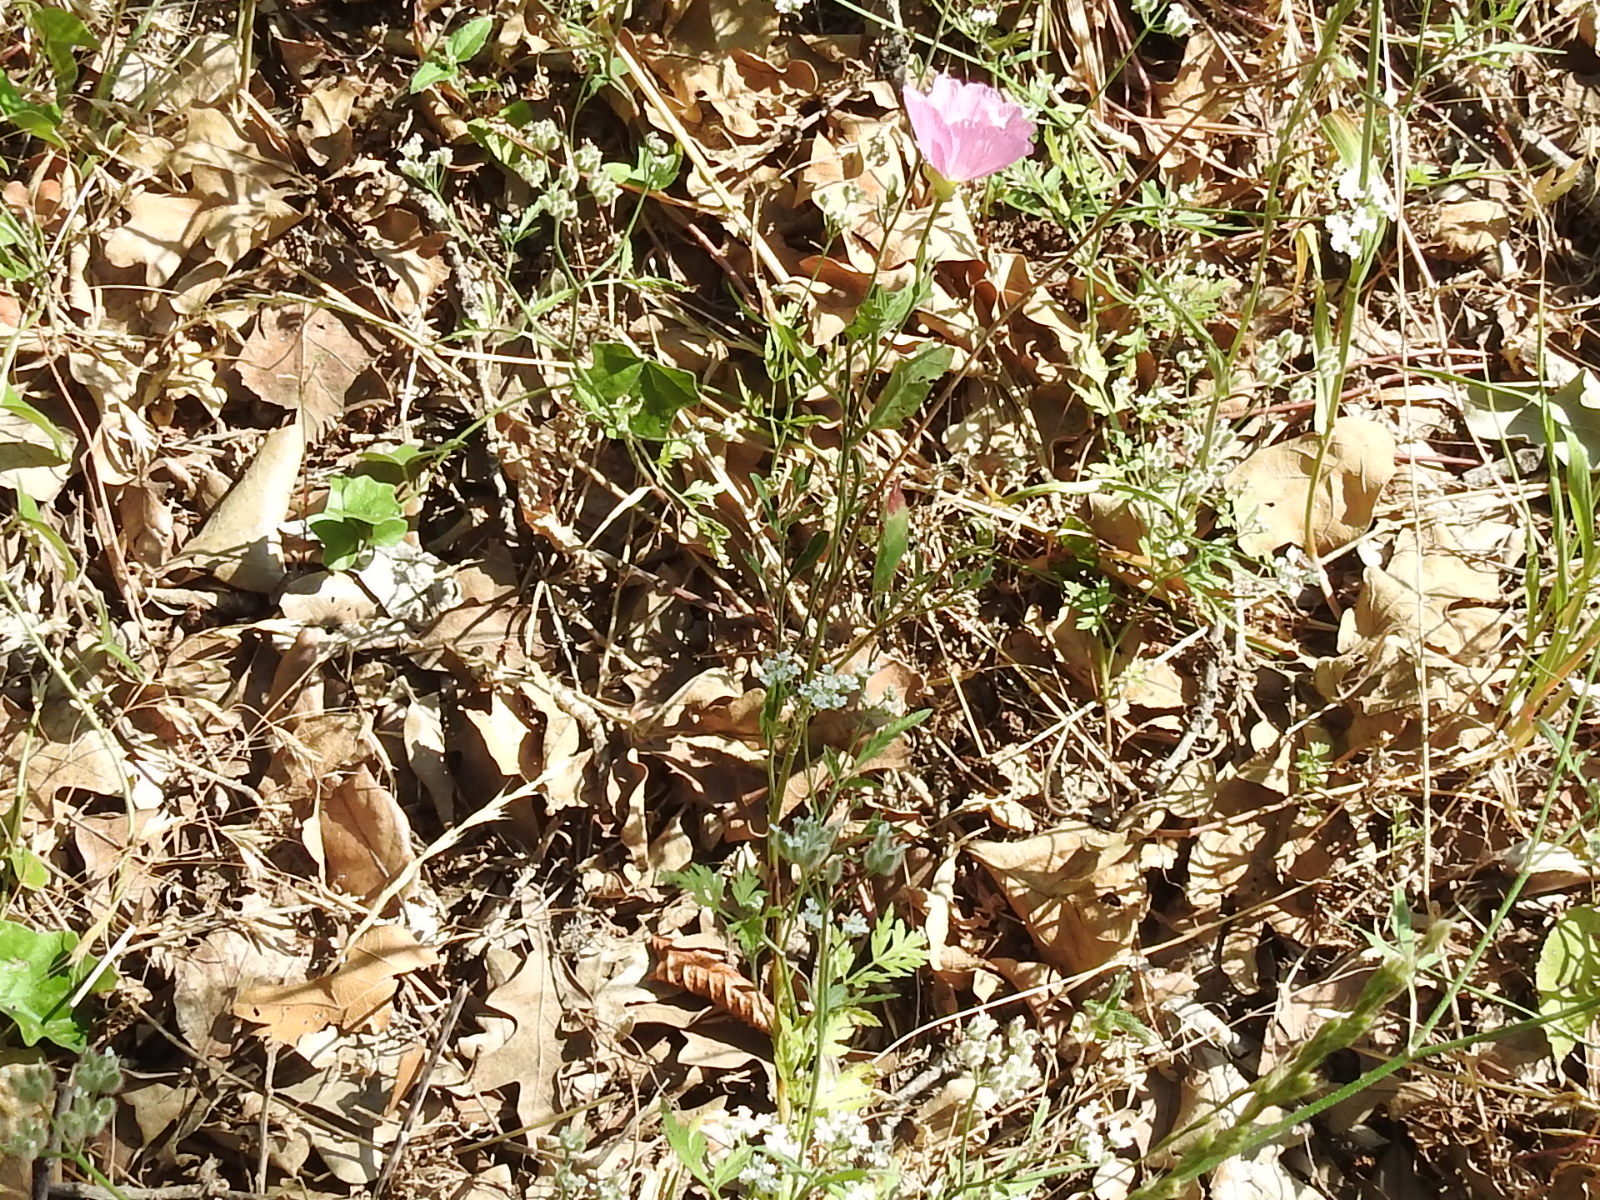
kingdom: Plantae
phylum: Tracheophyta
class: Magnoliopsida
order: Myrtales
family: Onagraceae
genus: Oenothera
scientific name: Oenothera speciosa
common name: White evening-primrose
